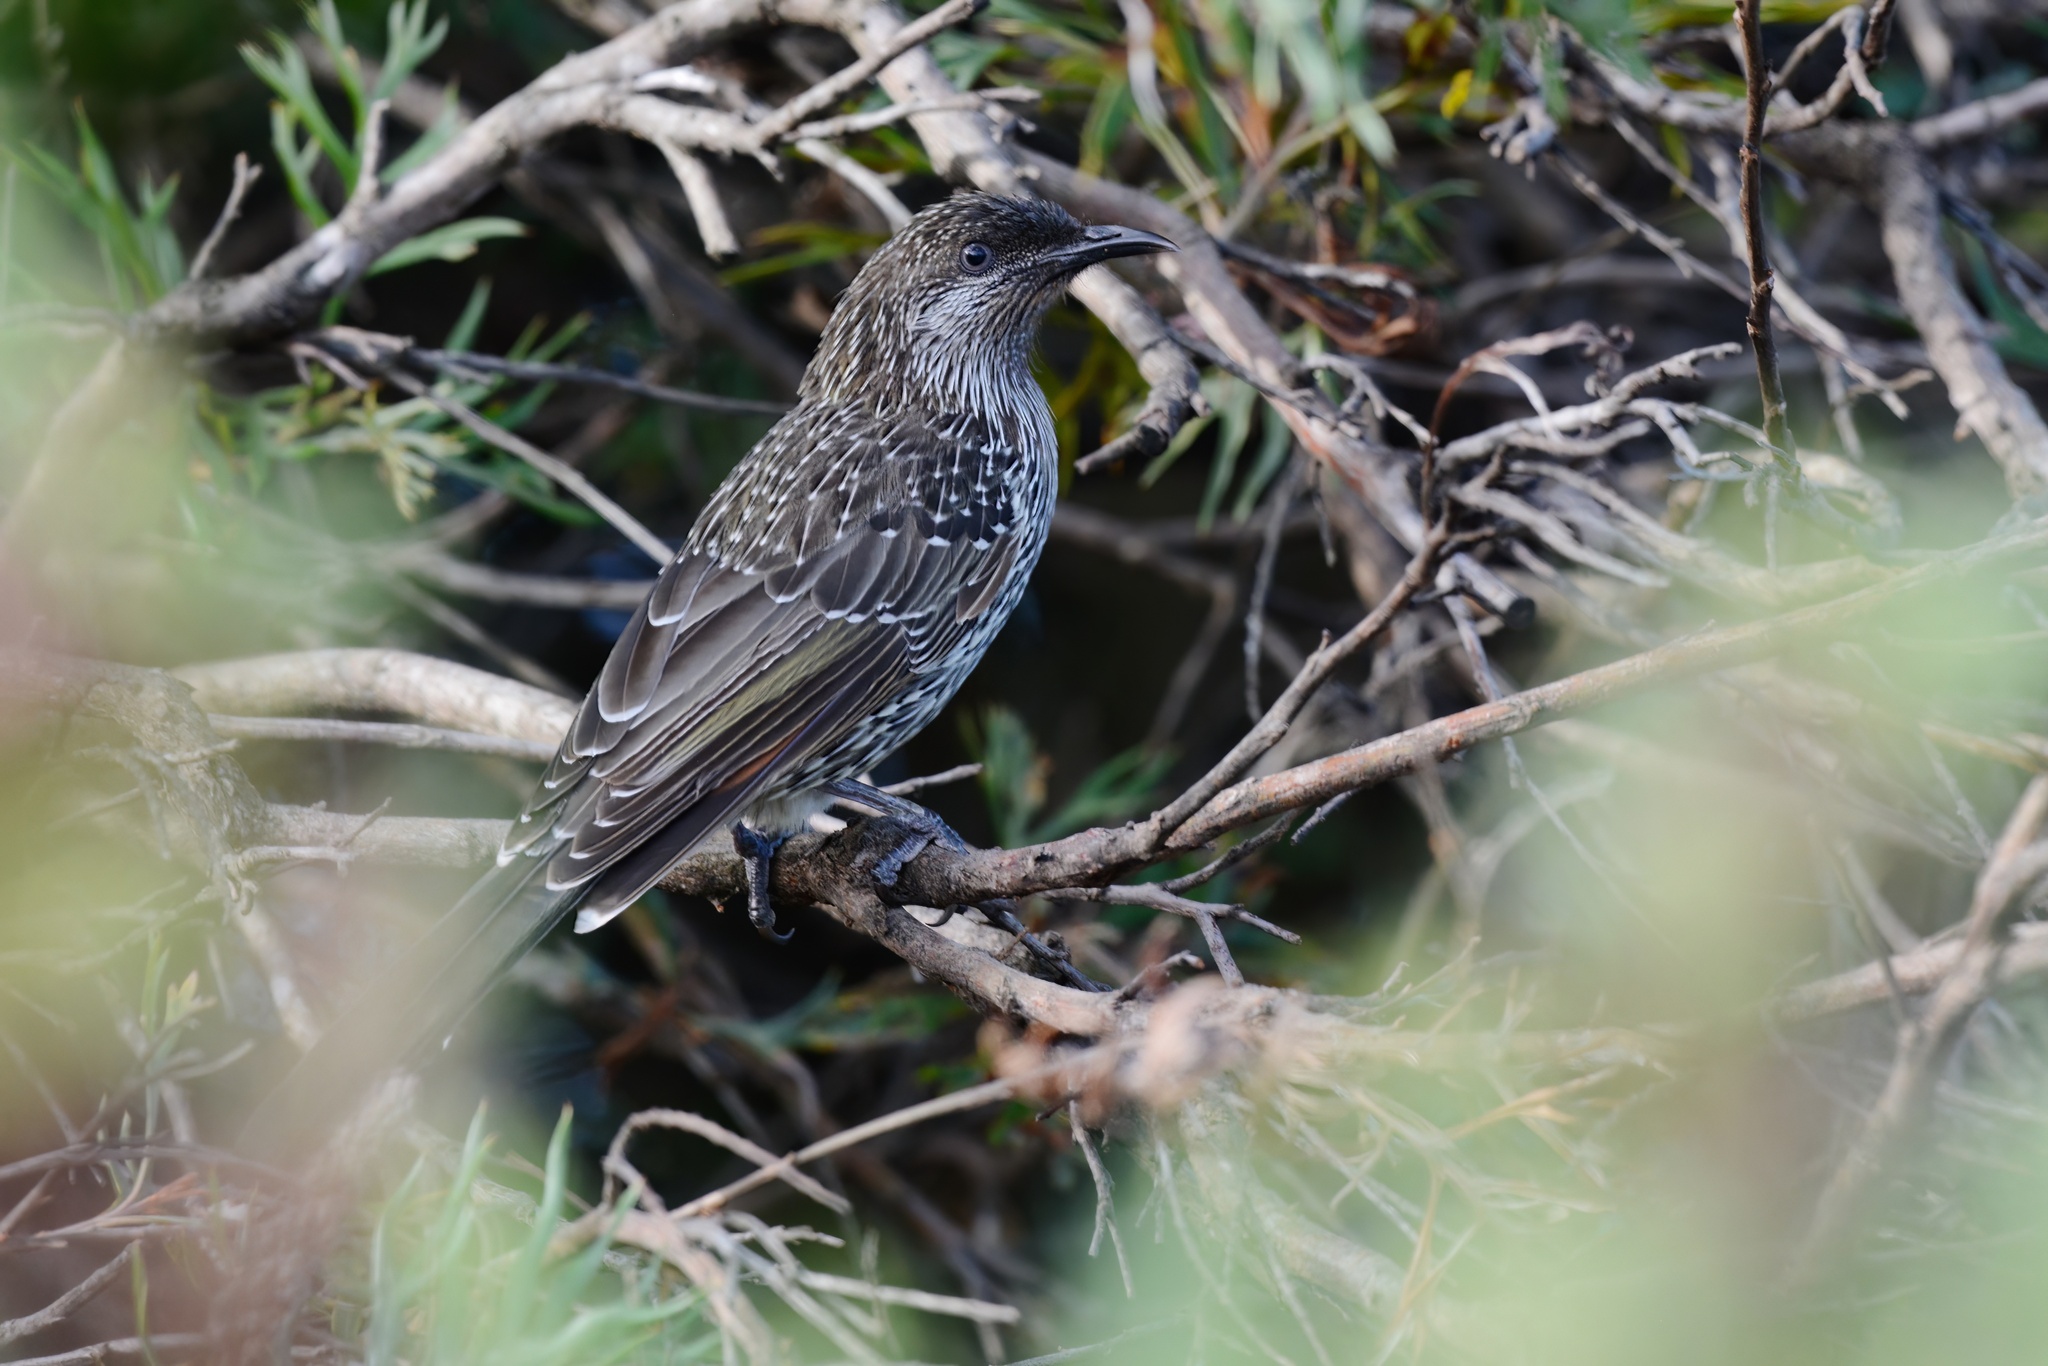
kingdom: Animalia
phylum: Chordata
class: Aves
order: Passeriformes
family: Meliphagidae
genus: Anthochaera
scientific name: Anthochaera chrysoptera
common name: Little wattlebird
